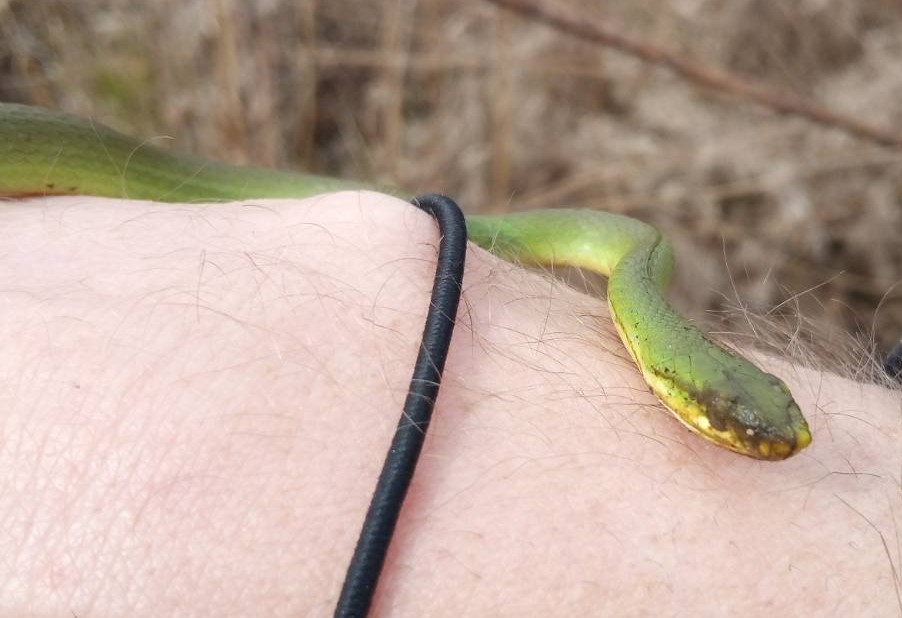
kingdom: Animalia
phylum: Chordata
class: Squamata
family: Colubridae
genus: Opheodrys
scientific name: Opheodrys aestivus
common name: Rough greensnake
